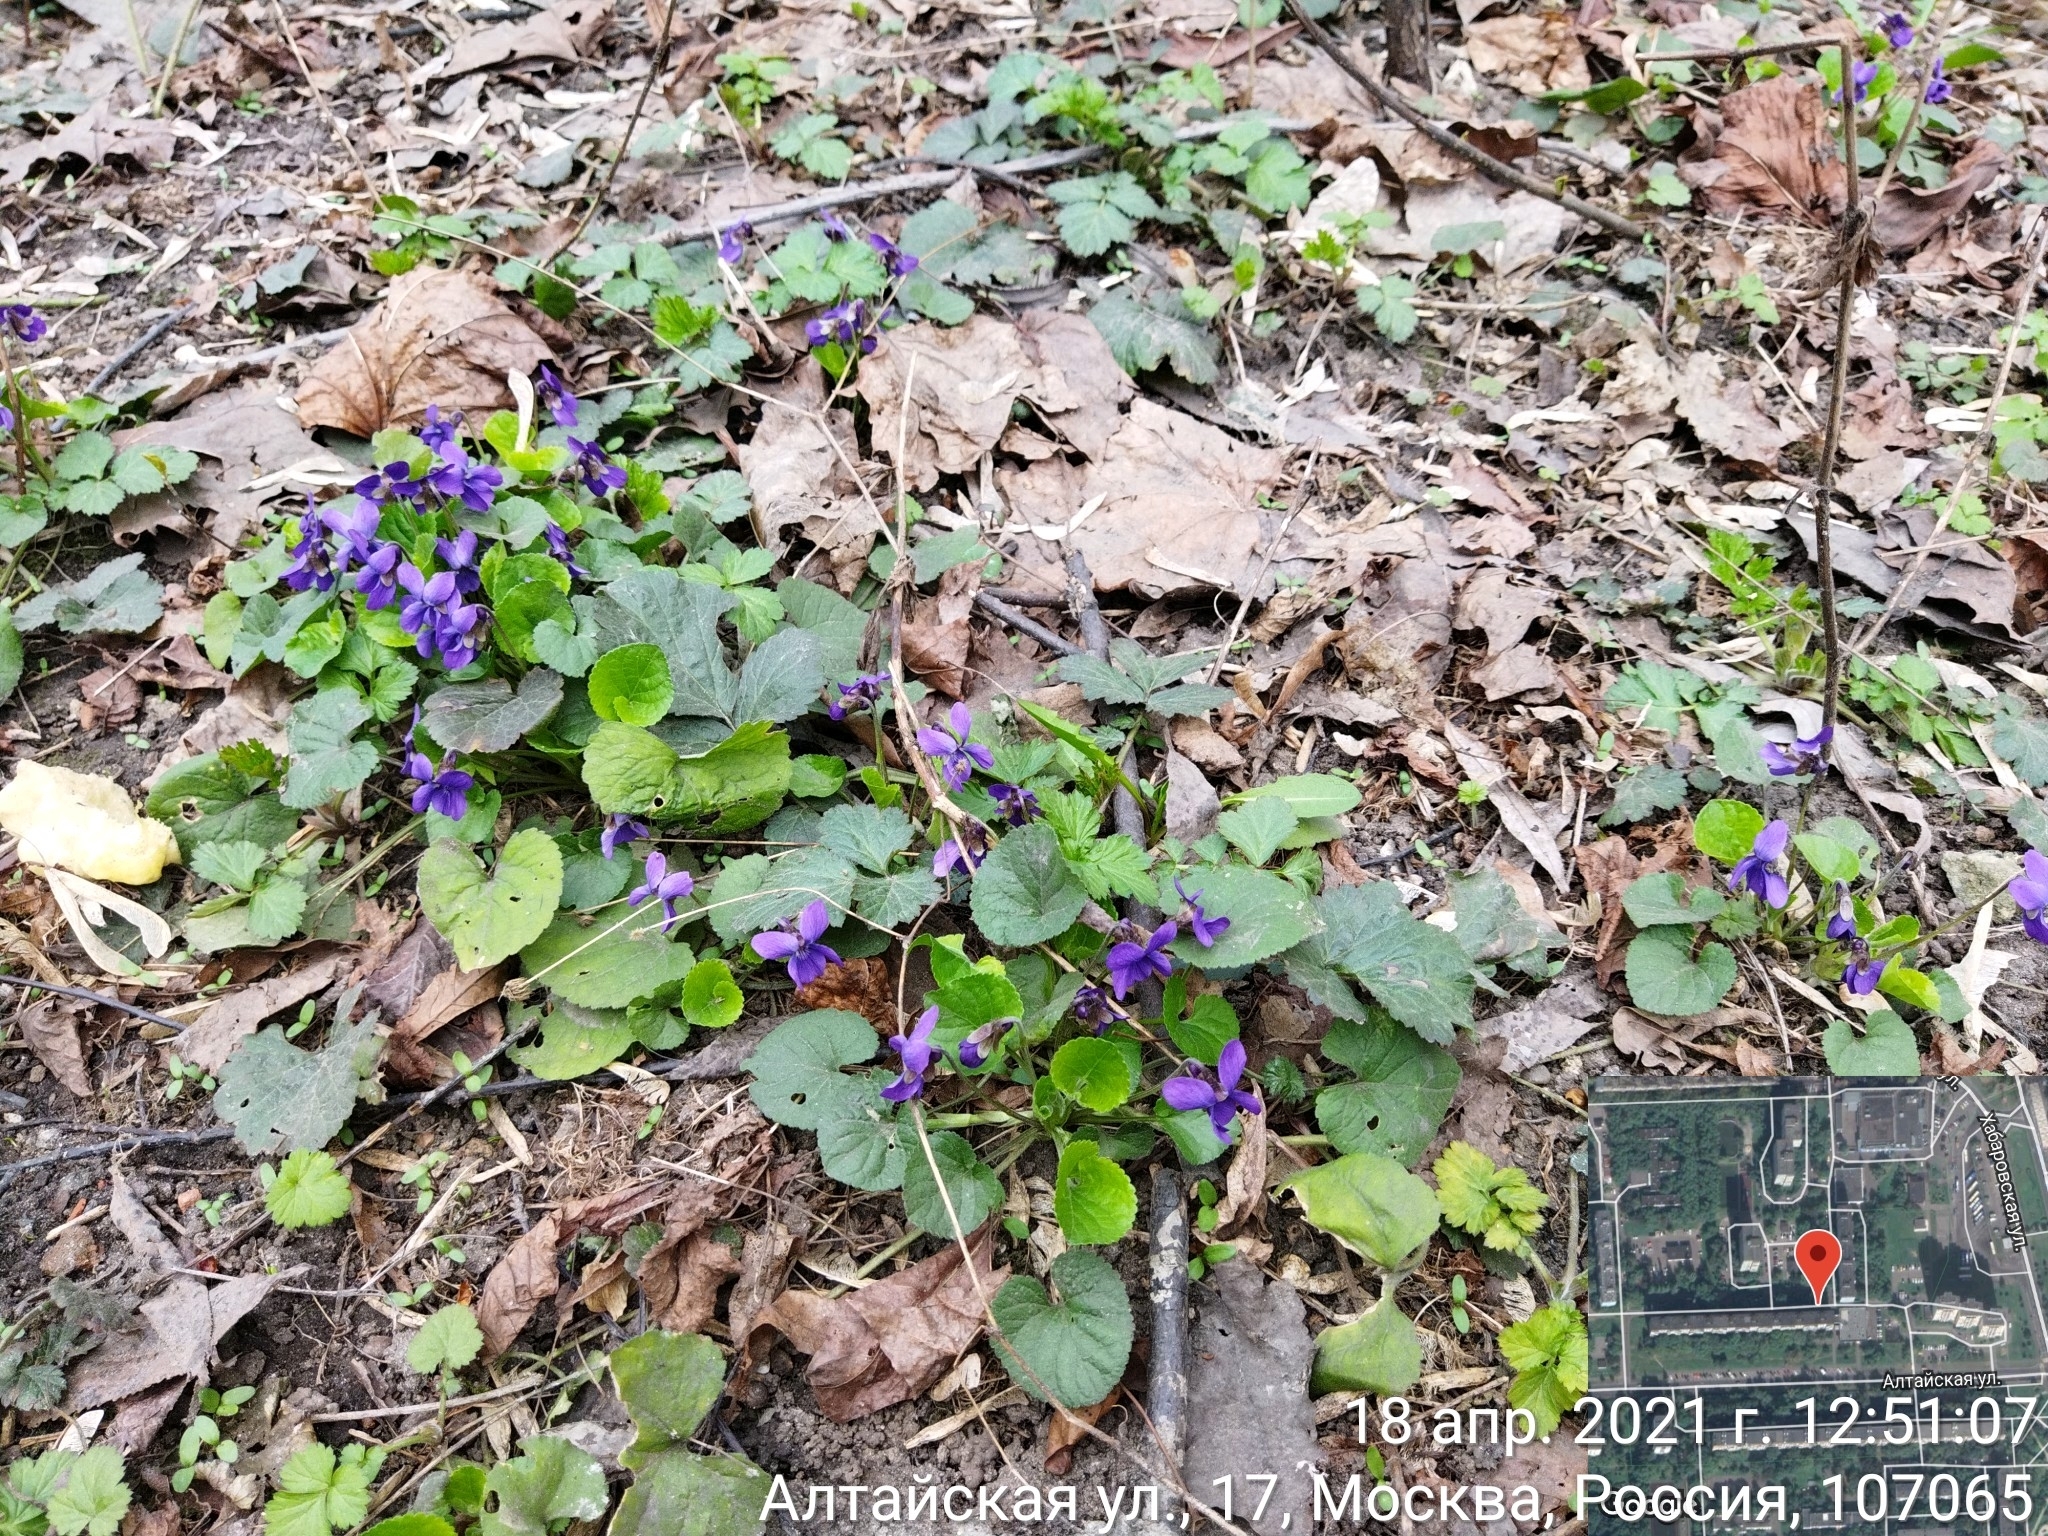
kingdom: Plantae
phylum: Tracheophyta
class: Magnoliopsida
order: Malpighiales
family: Violaceae
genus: Viola
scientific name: Viola odorata
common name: Sweet violet
